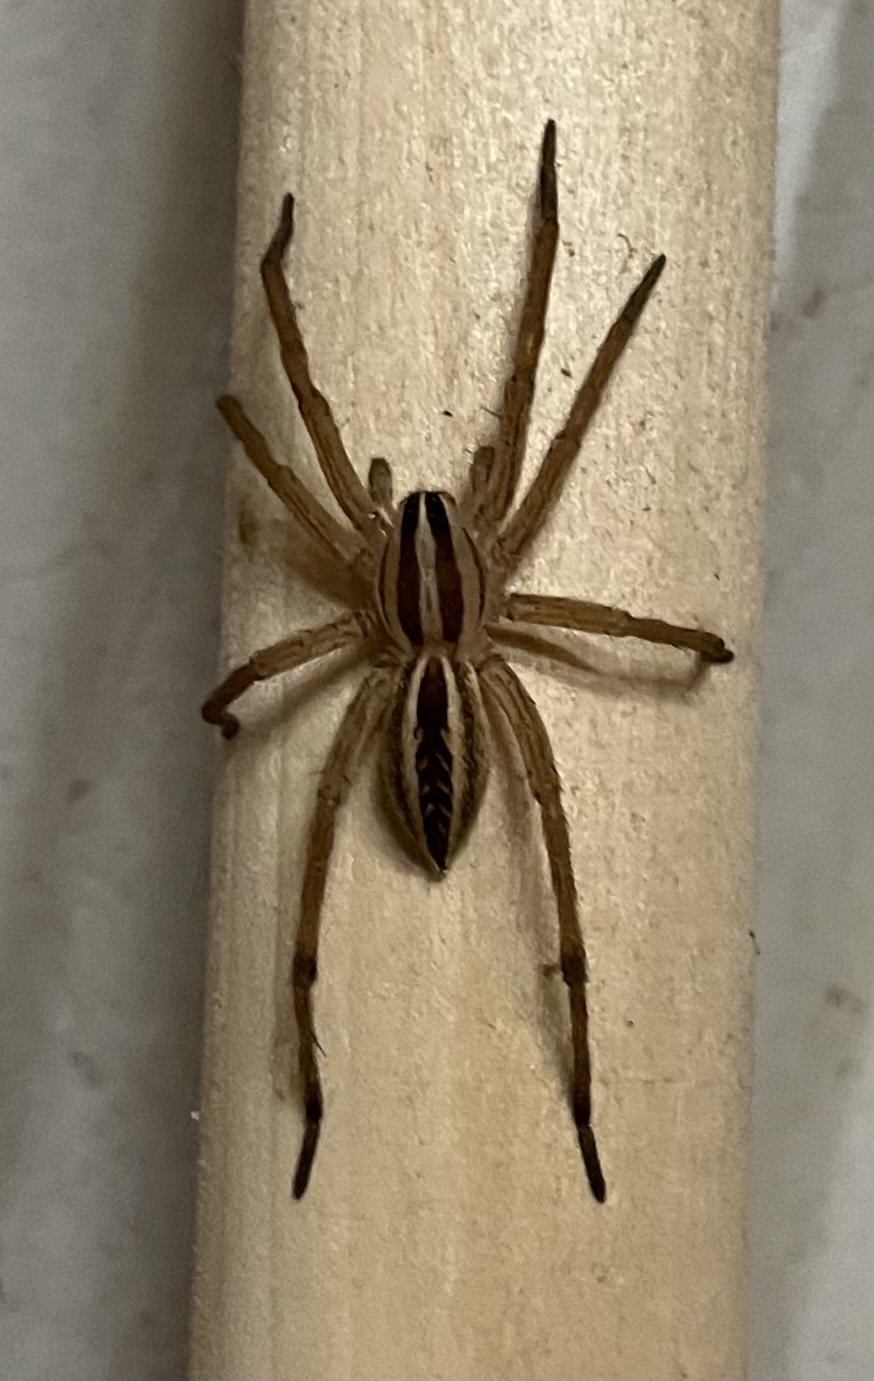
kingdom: Animalia
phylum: Arthropoda
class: Arachnida
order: Araneae
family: Lycosidae
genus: Rabidosa
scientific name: Rabidosa rabida
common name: Rabid wolf spider
